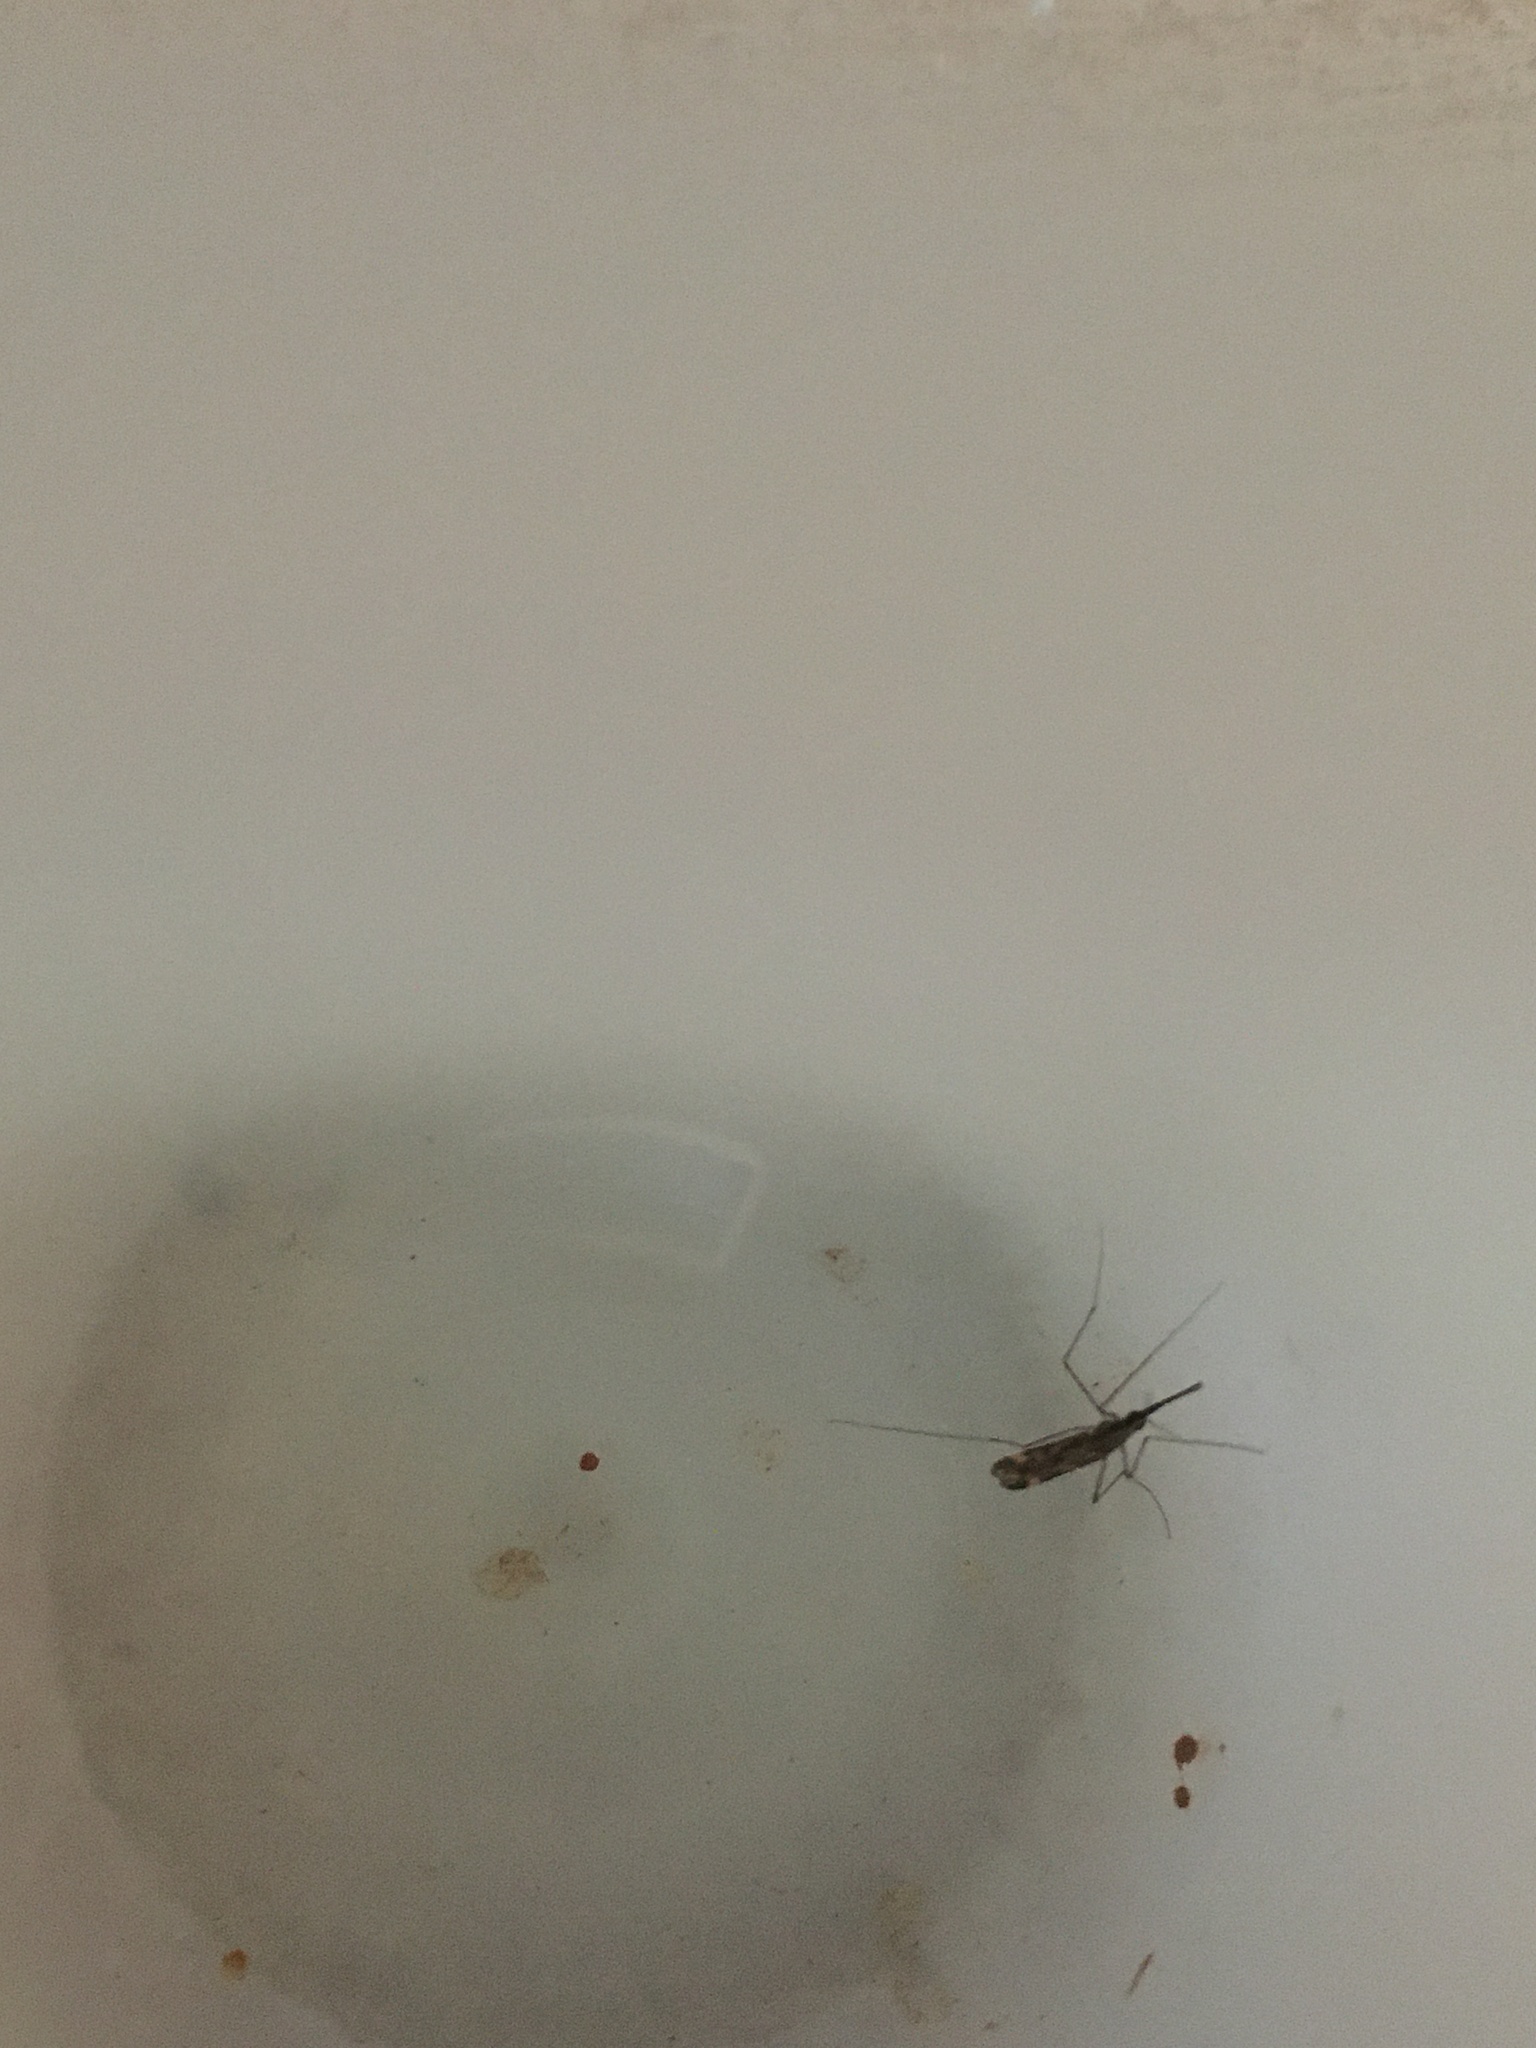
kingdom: Animalia
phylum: Arthropoda
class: Insecta
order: Diptera
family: Culicidae
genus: Anopheles
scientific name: Anopheles punctipennis
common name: Woodland malaria mosquito
